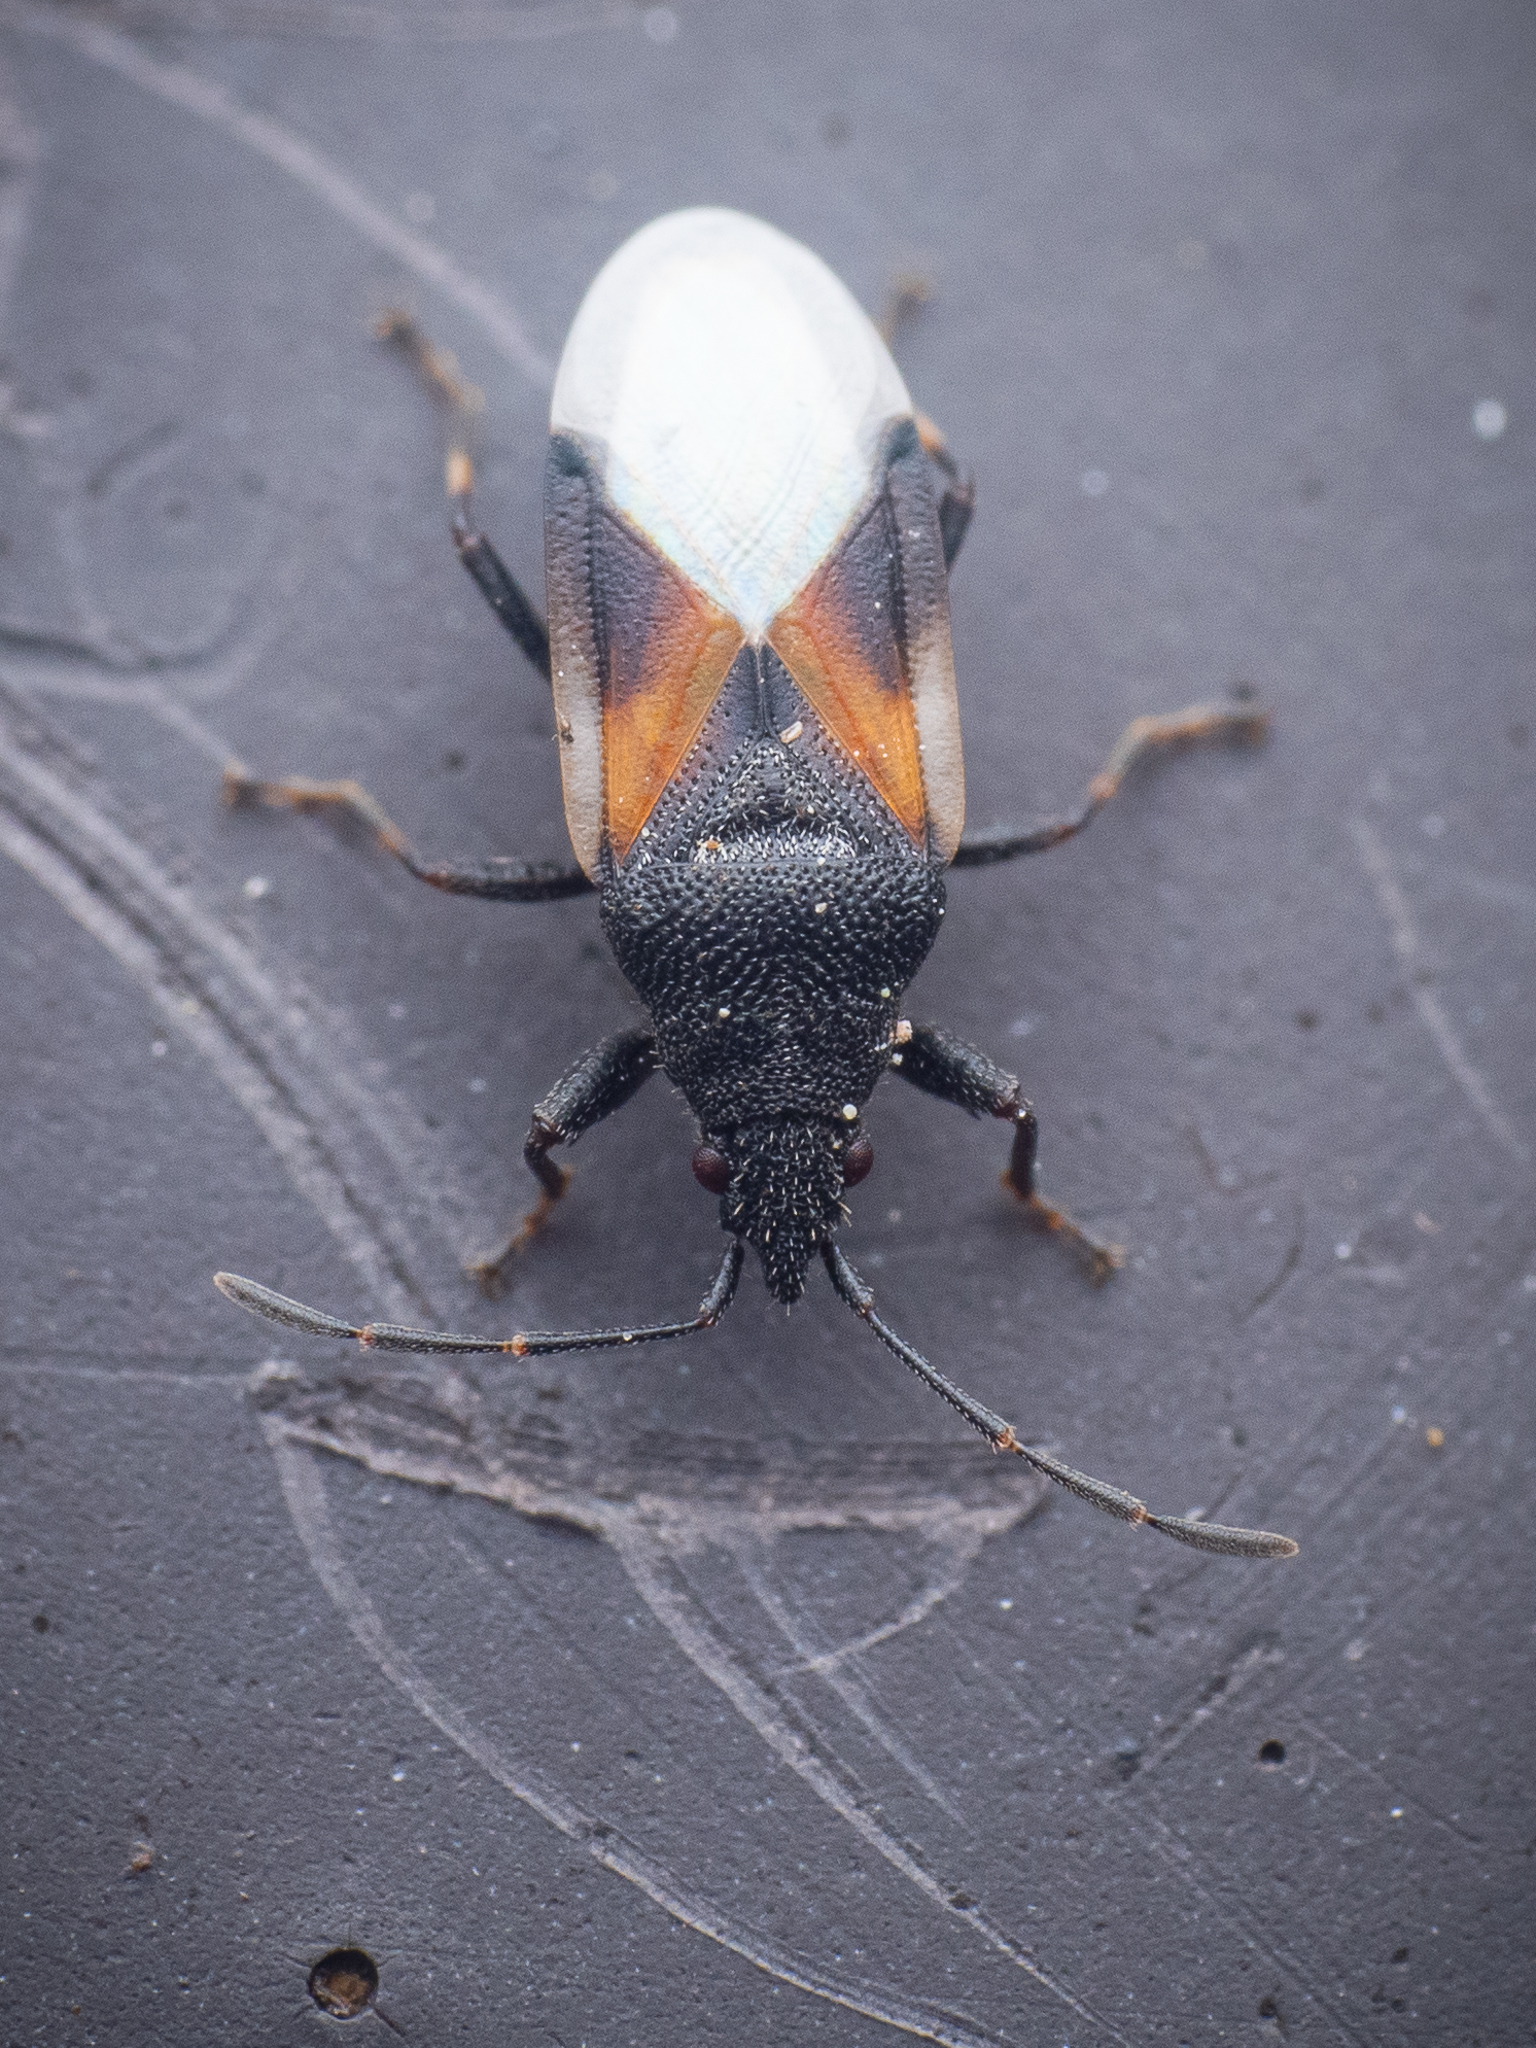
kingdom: Animalia
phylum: Arthropoda
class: Insecta
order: Hemiptera
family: Oxycarenidae
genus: Oxycarenus
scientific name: Oxycarenus lavaterae
